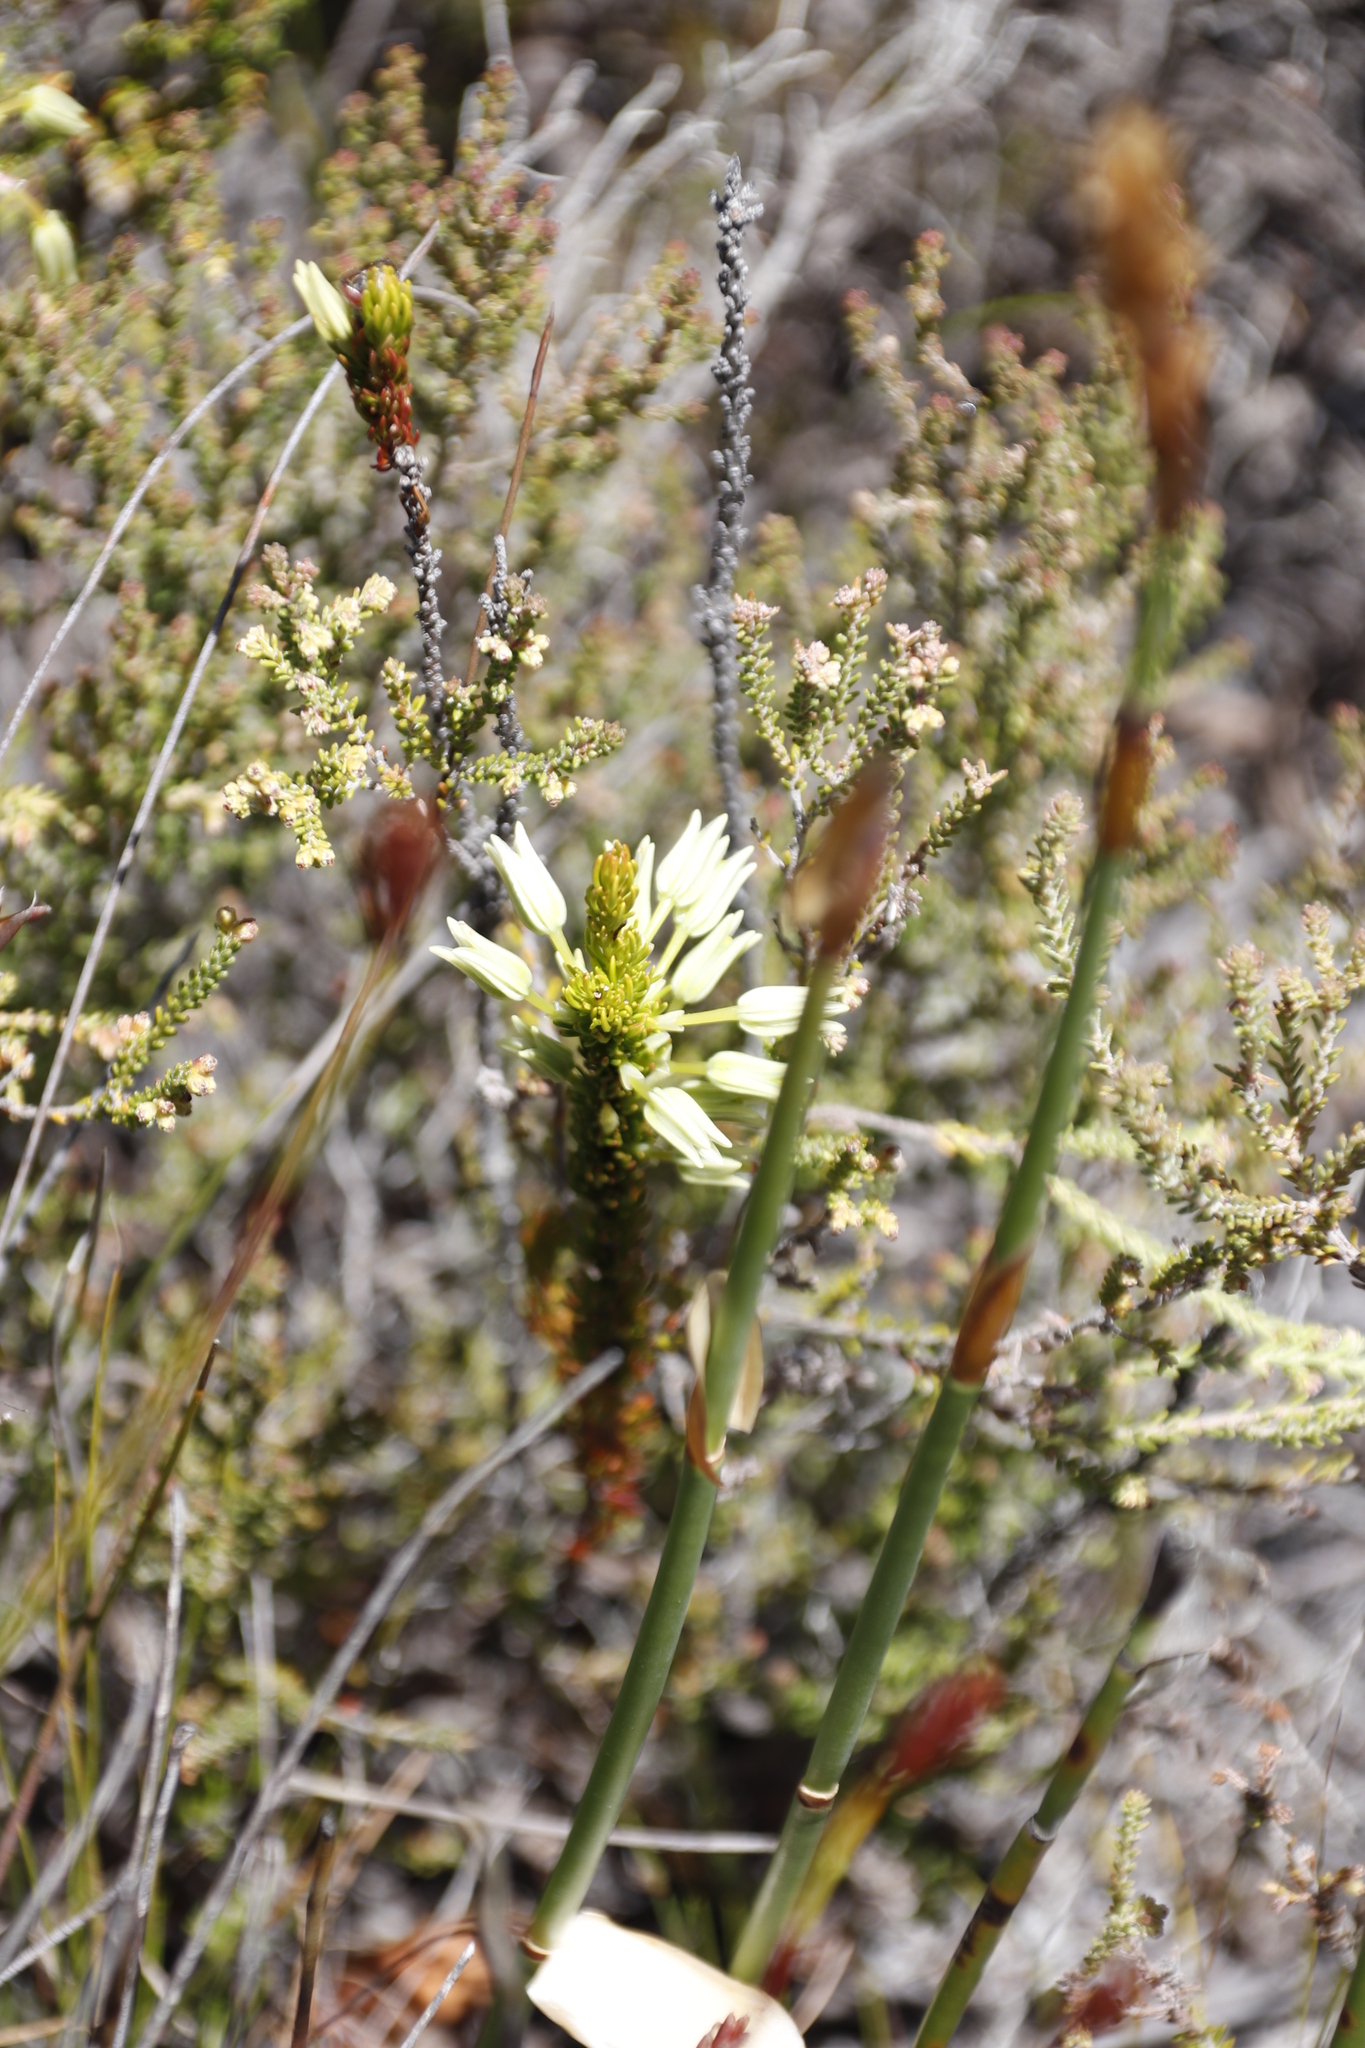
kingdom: Plantae
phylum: Tracheophyta
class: Magnoliopsida
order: Ericales
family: Ericaceae
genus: Erica
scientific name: Erica plukenetii
